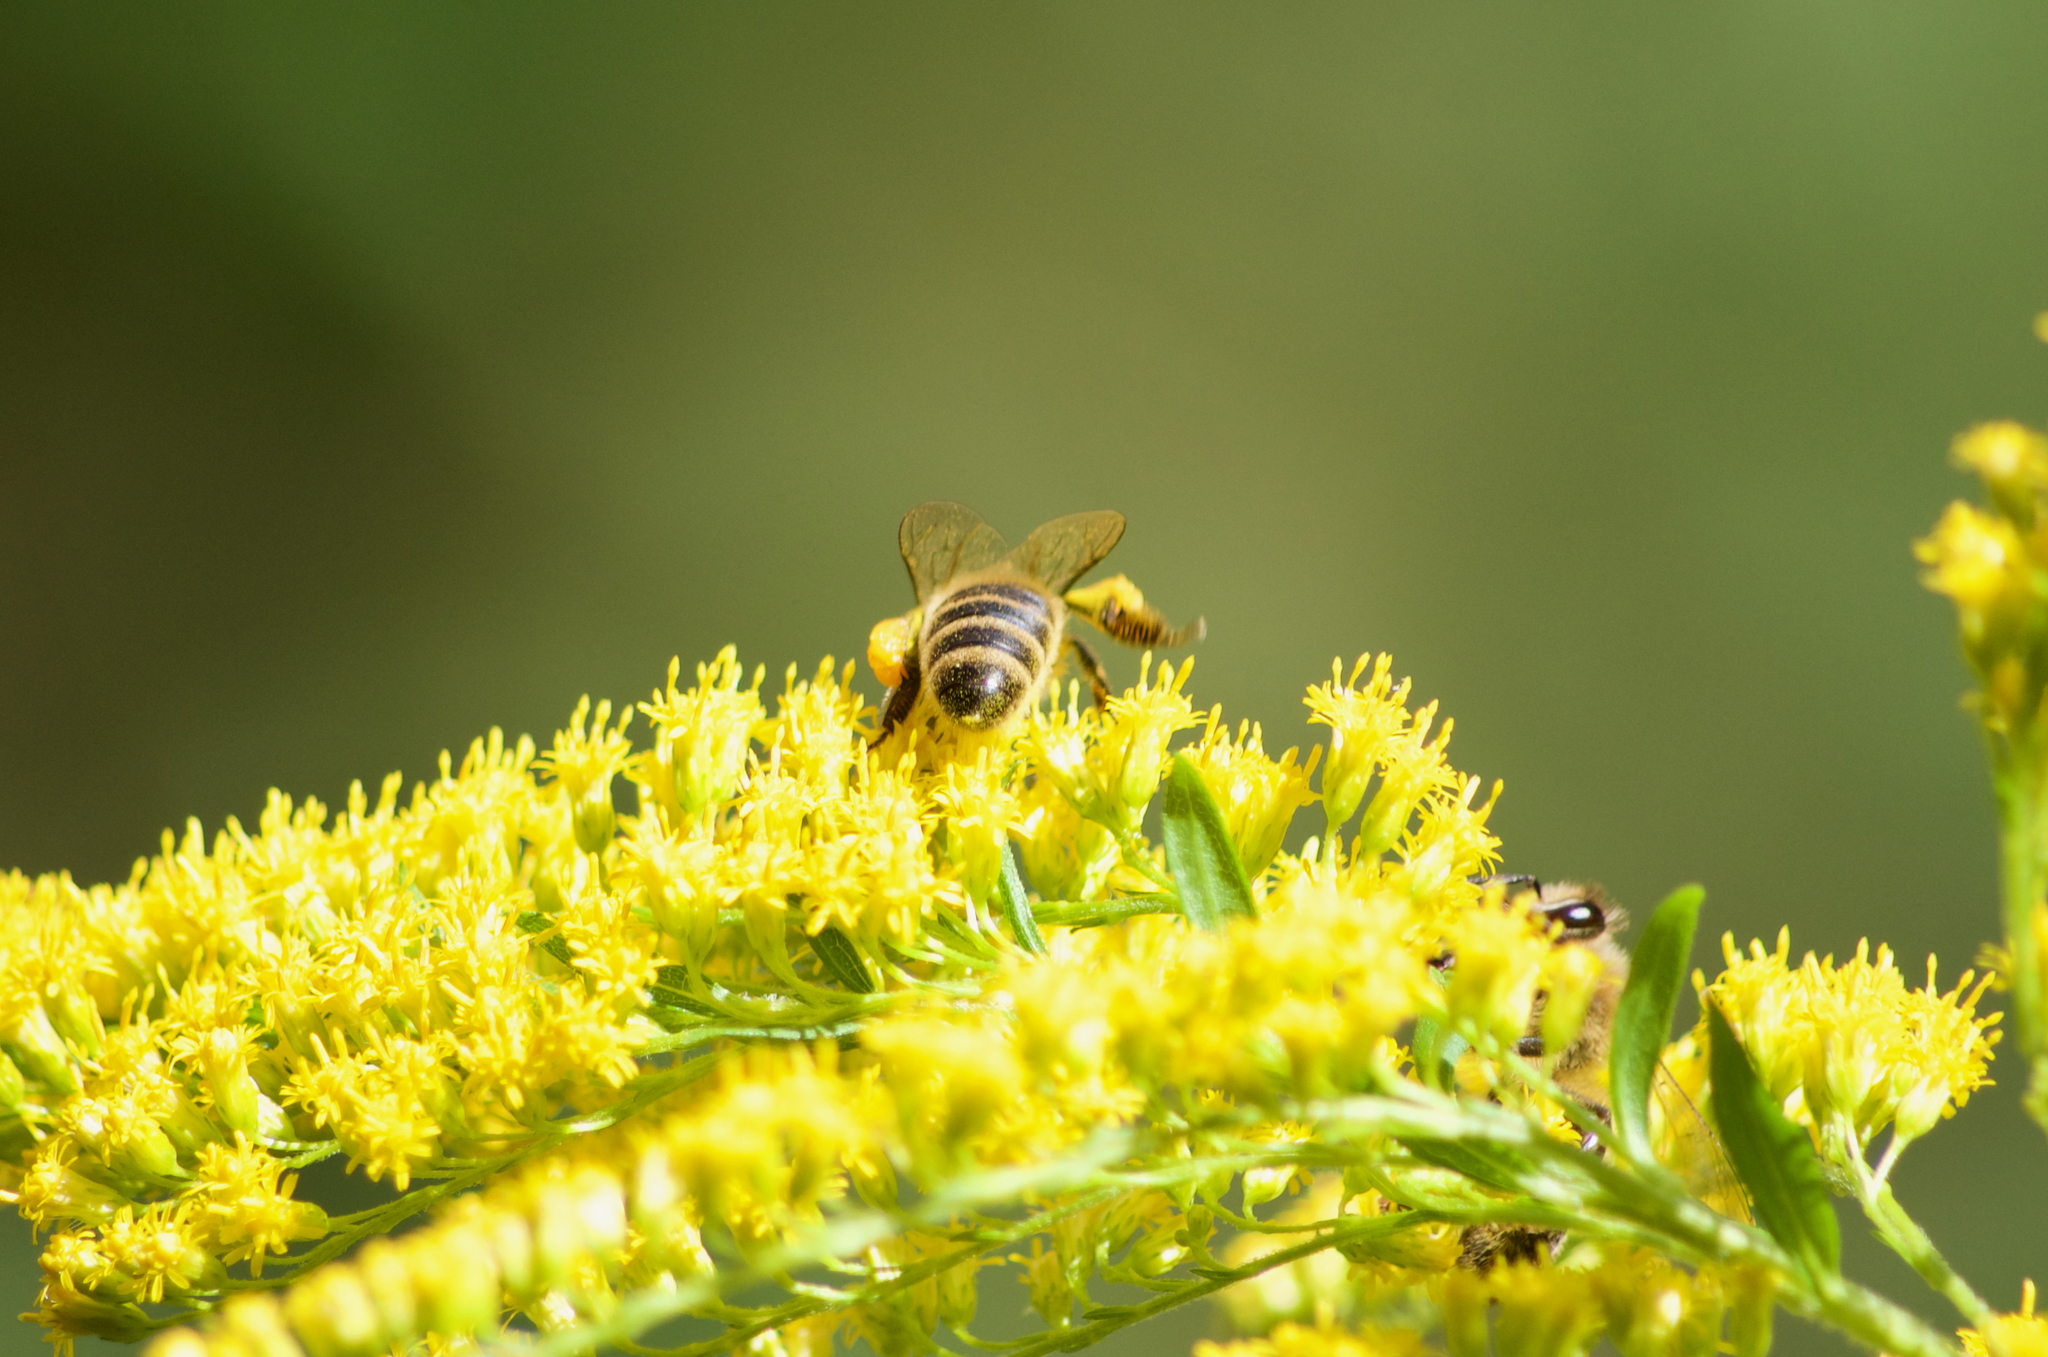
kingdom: Animalia
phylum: Arthropoda
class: Insecta
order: Hymenoptera
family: Apidae
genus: Apis
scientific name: Apis mellifera
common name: Honey bee
